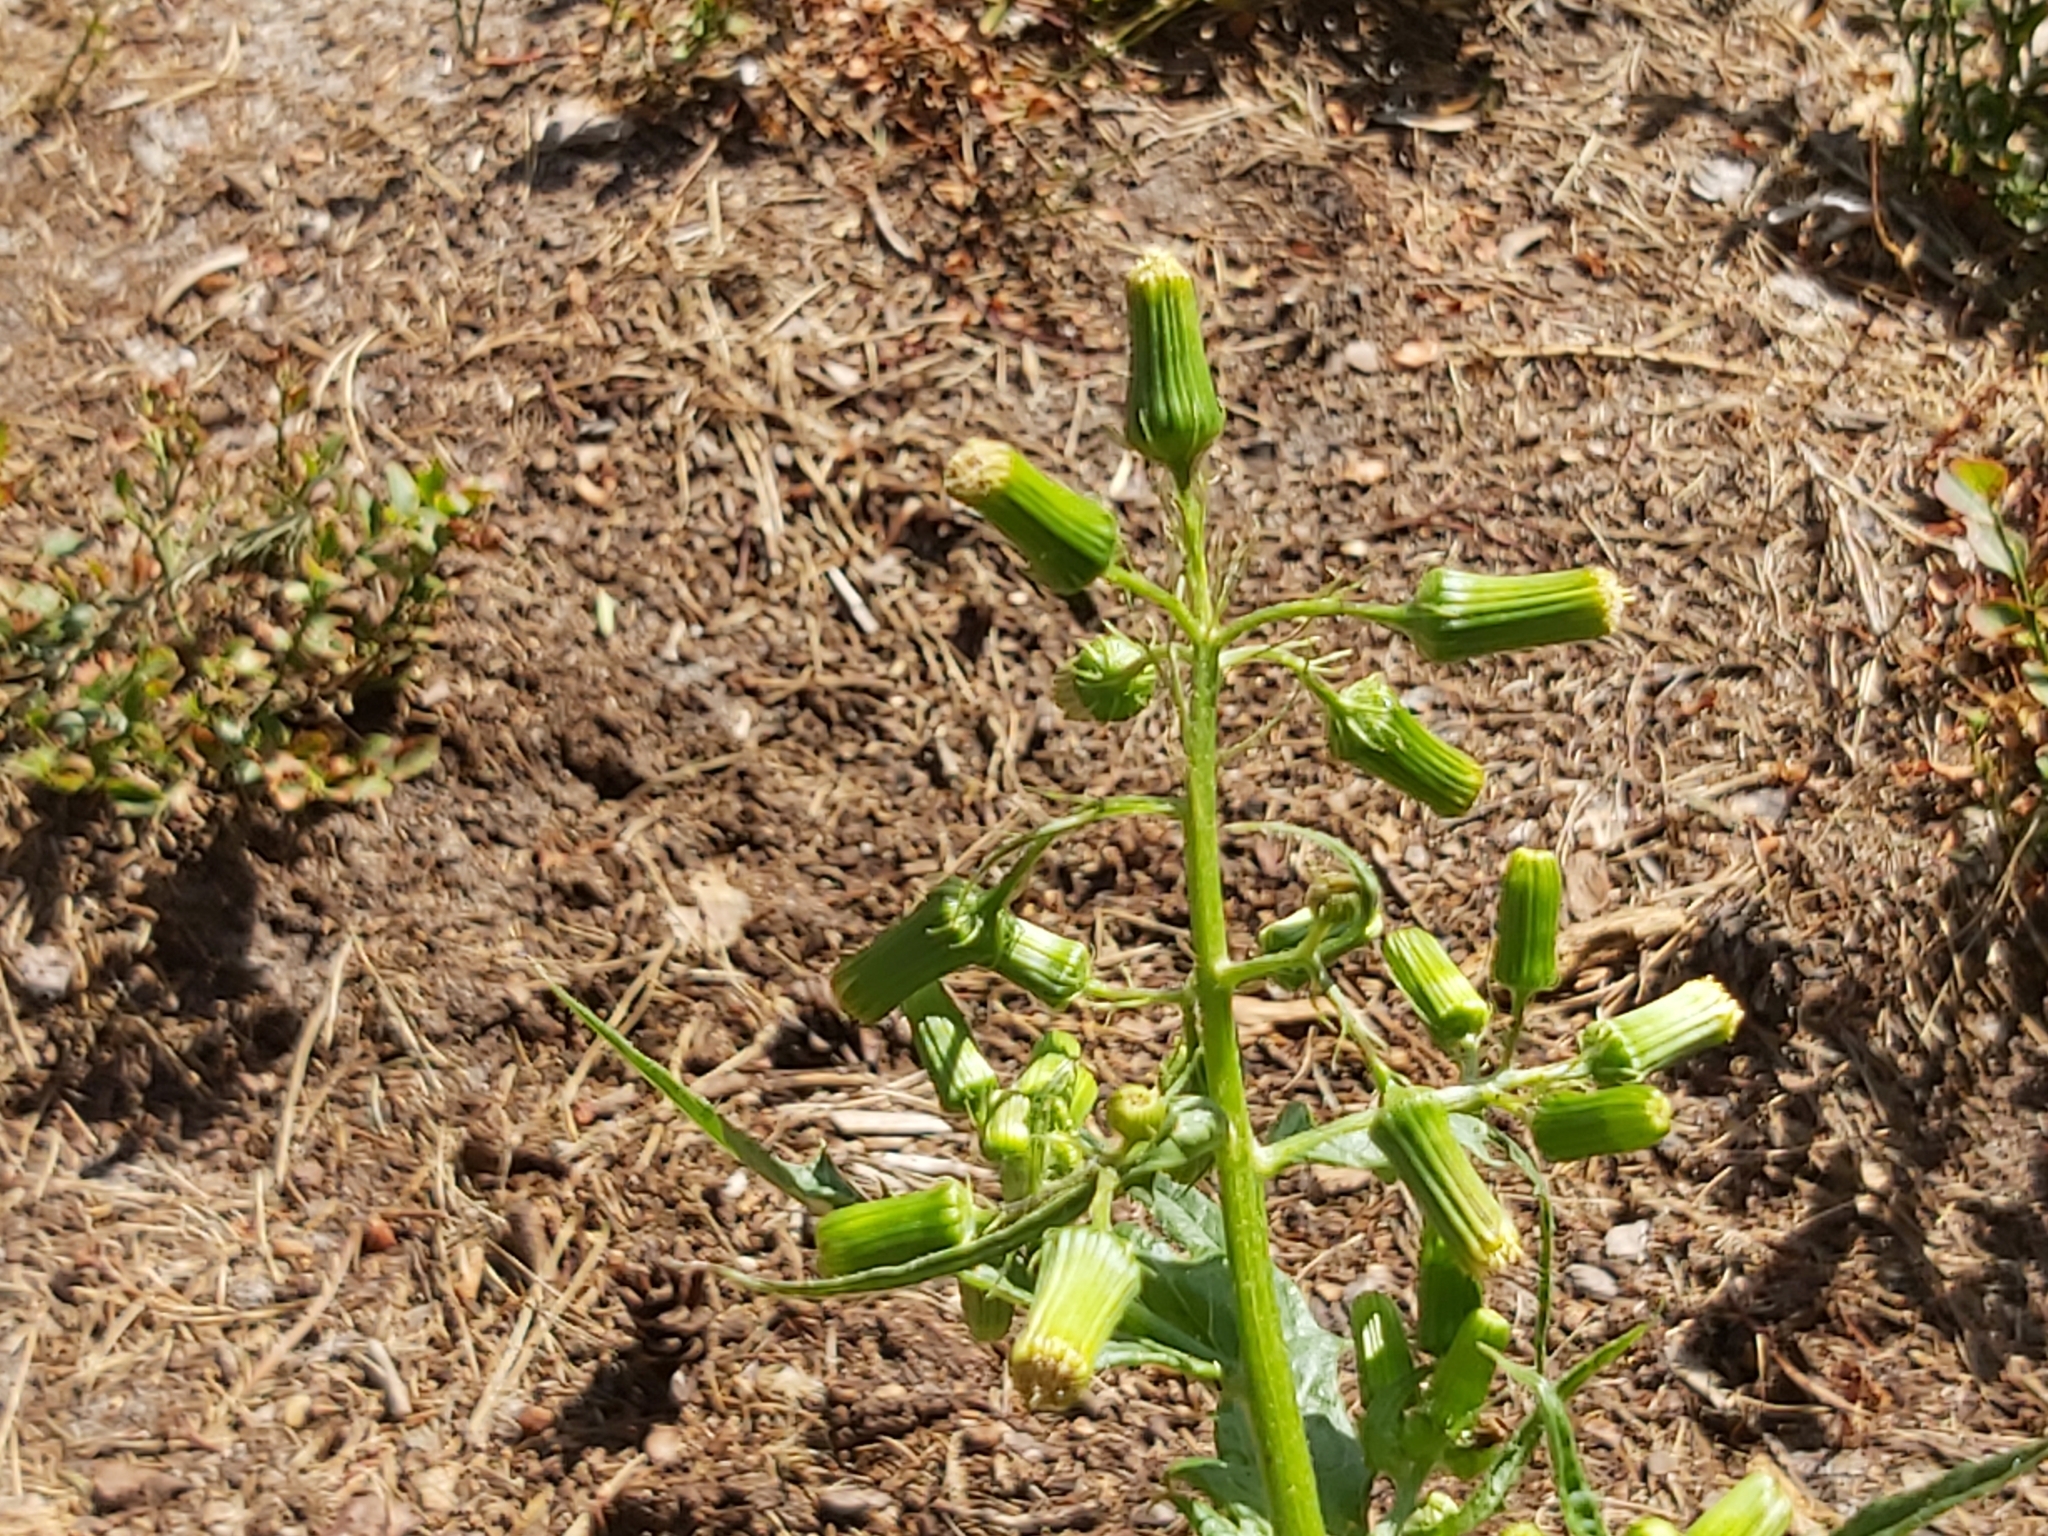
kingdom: Plantae
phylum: Tracheophyta
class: Magnoliopsida
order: Asterales
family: Asteraceae
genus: Erechtites
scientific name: Erechtites hieraciifolius
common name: American burnweed
